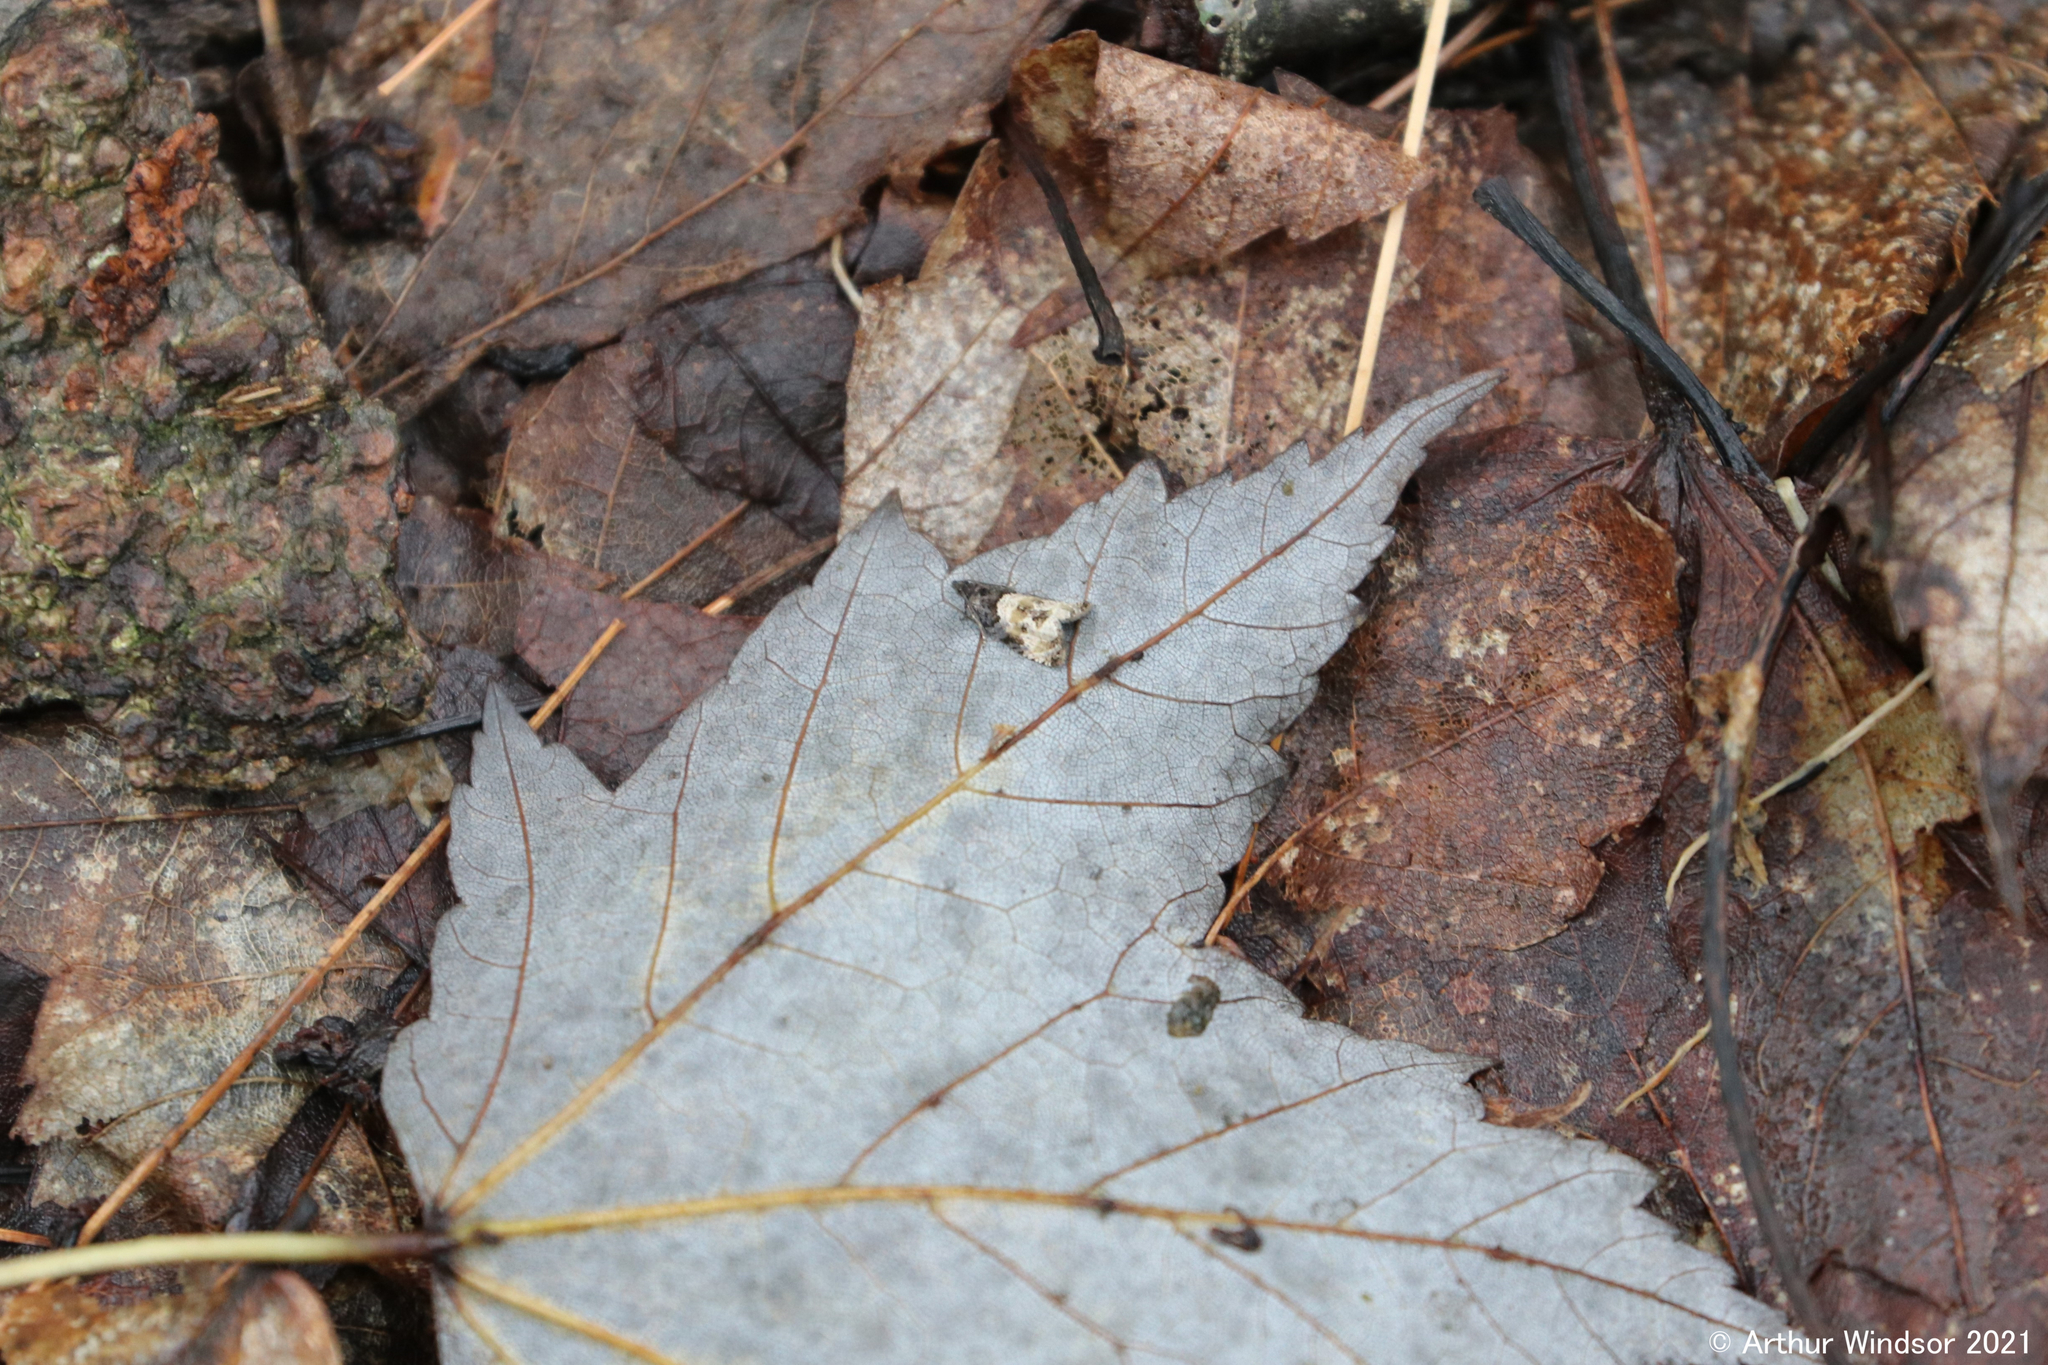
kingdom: Animalia
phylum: Arthropoda
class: Insecta
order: Lepidoptera
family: Tortricidae
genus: Hulda
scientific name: Hulda impudens
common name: Impudent hulda moth
